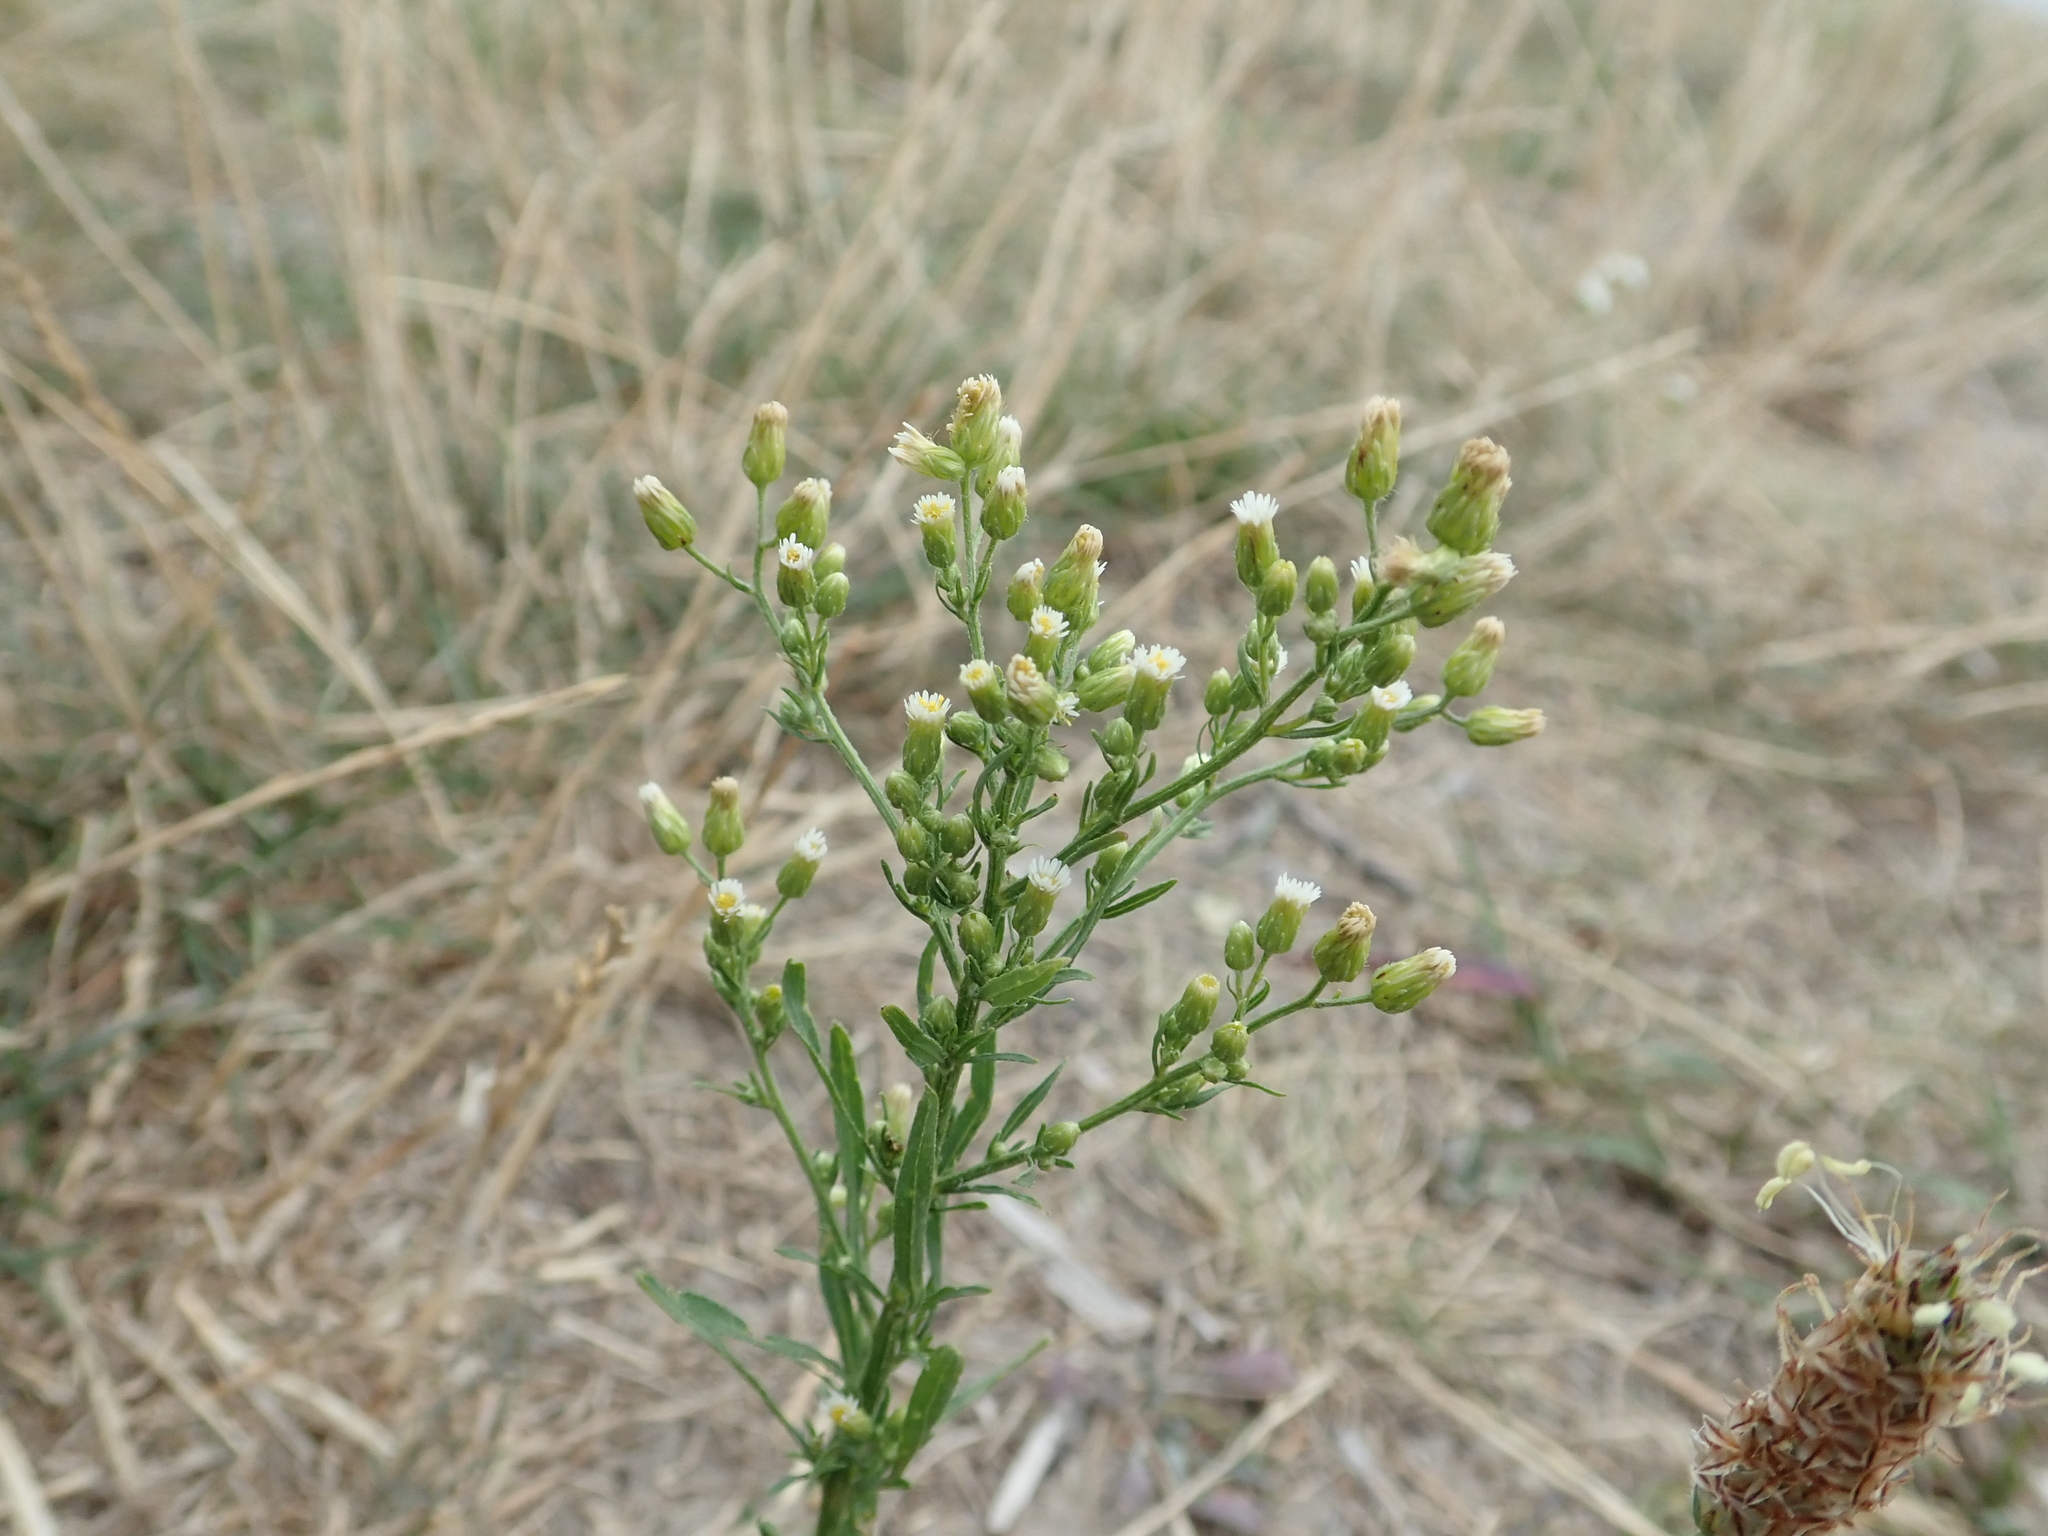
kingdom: Plantae
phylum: Tracheophyta
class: Magnoliopsida
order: Asterales
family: Asteraceae
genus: Erigeron
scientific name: Erigeron canadensis
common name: Canadian fleabane
